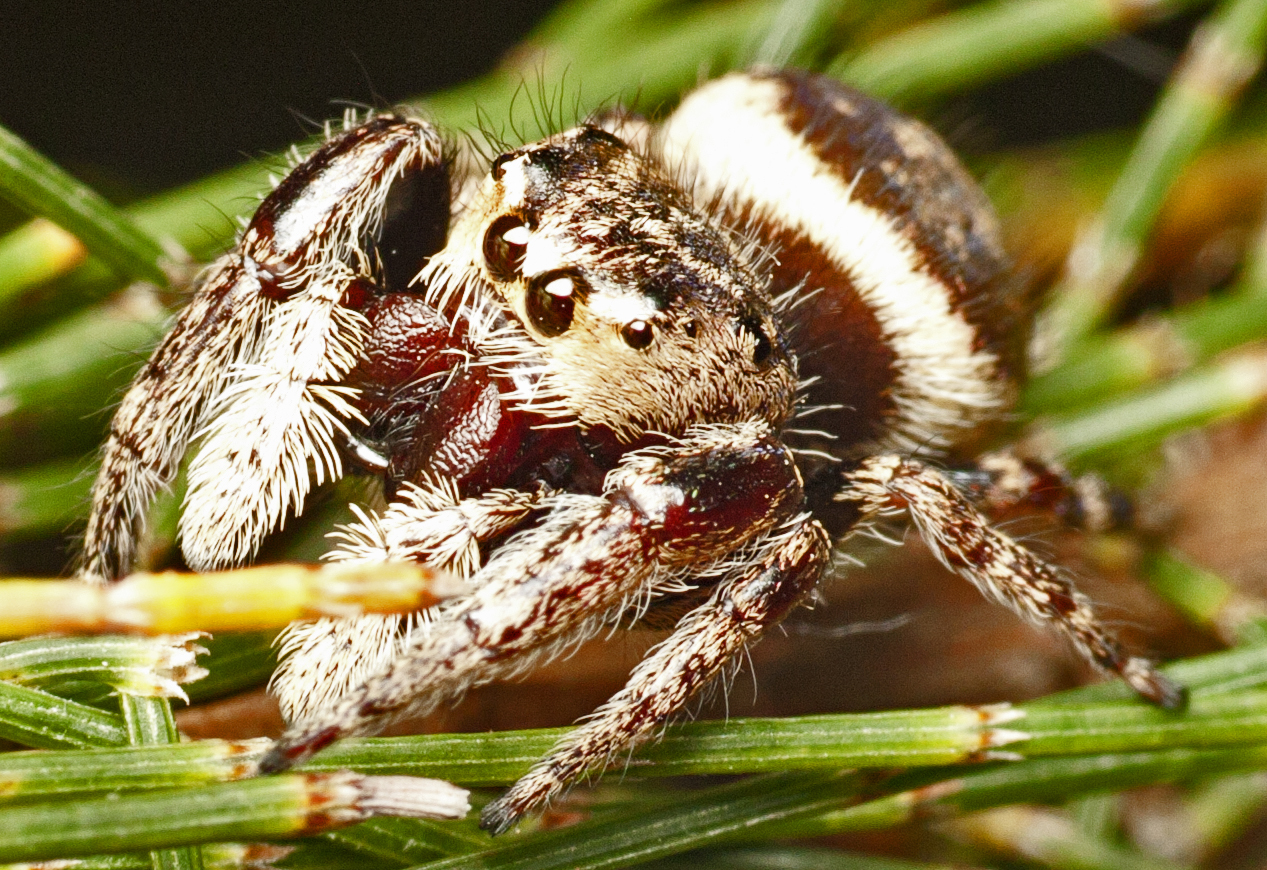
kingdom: Animalia
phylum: Arthropoda
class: Arachnida
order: Araneae
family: Salticidae
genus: Simaetha
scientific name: Simaetha tenuidens
